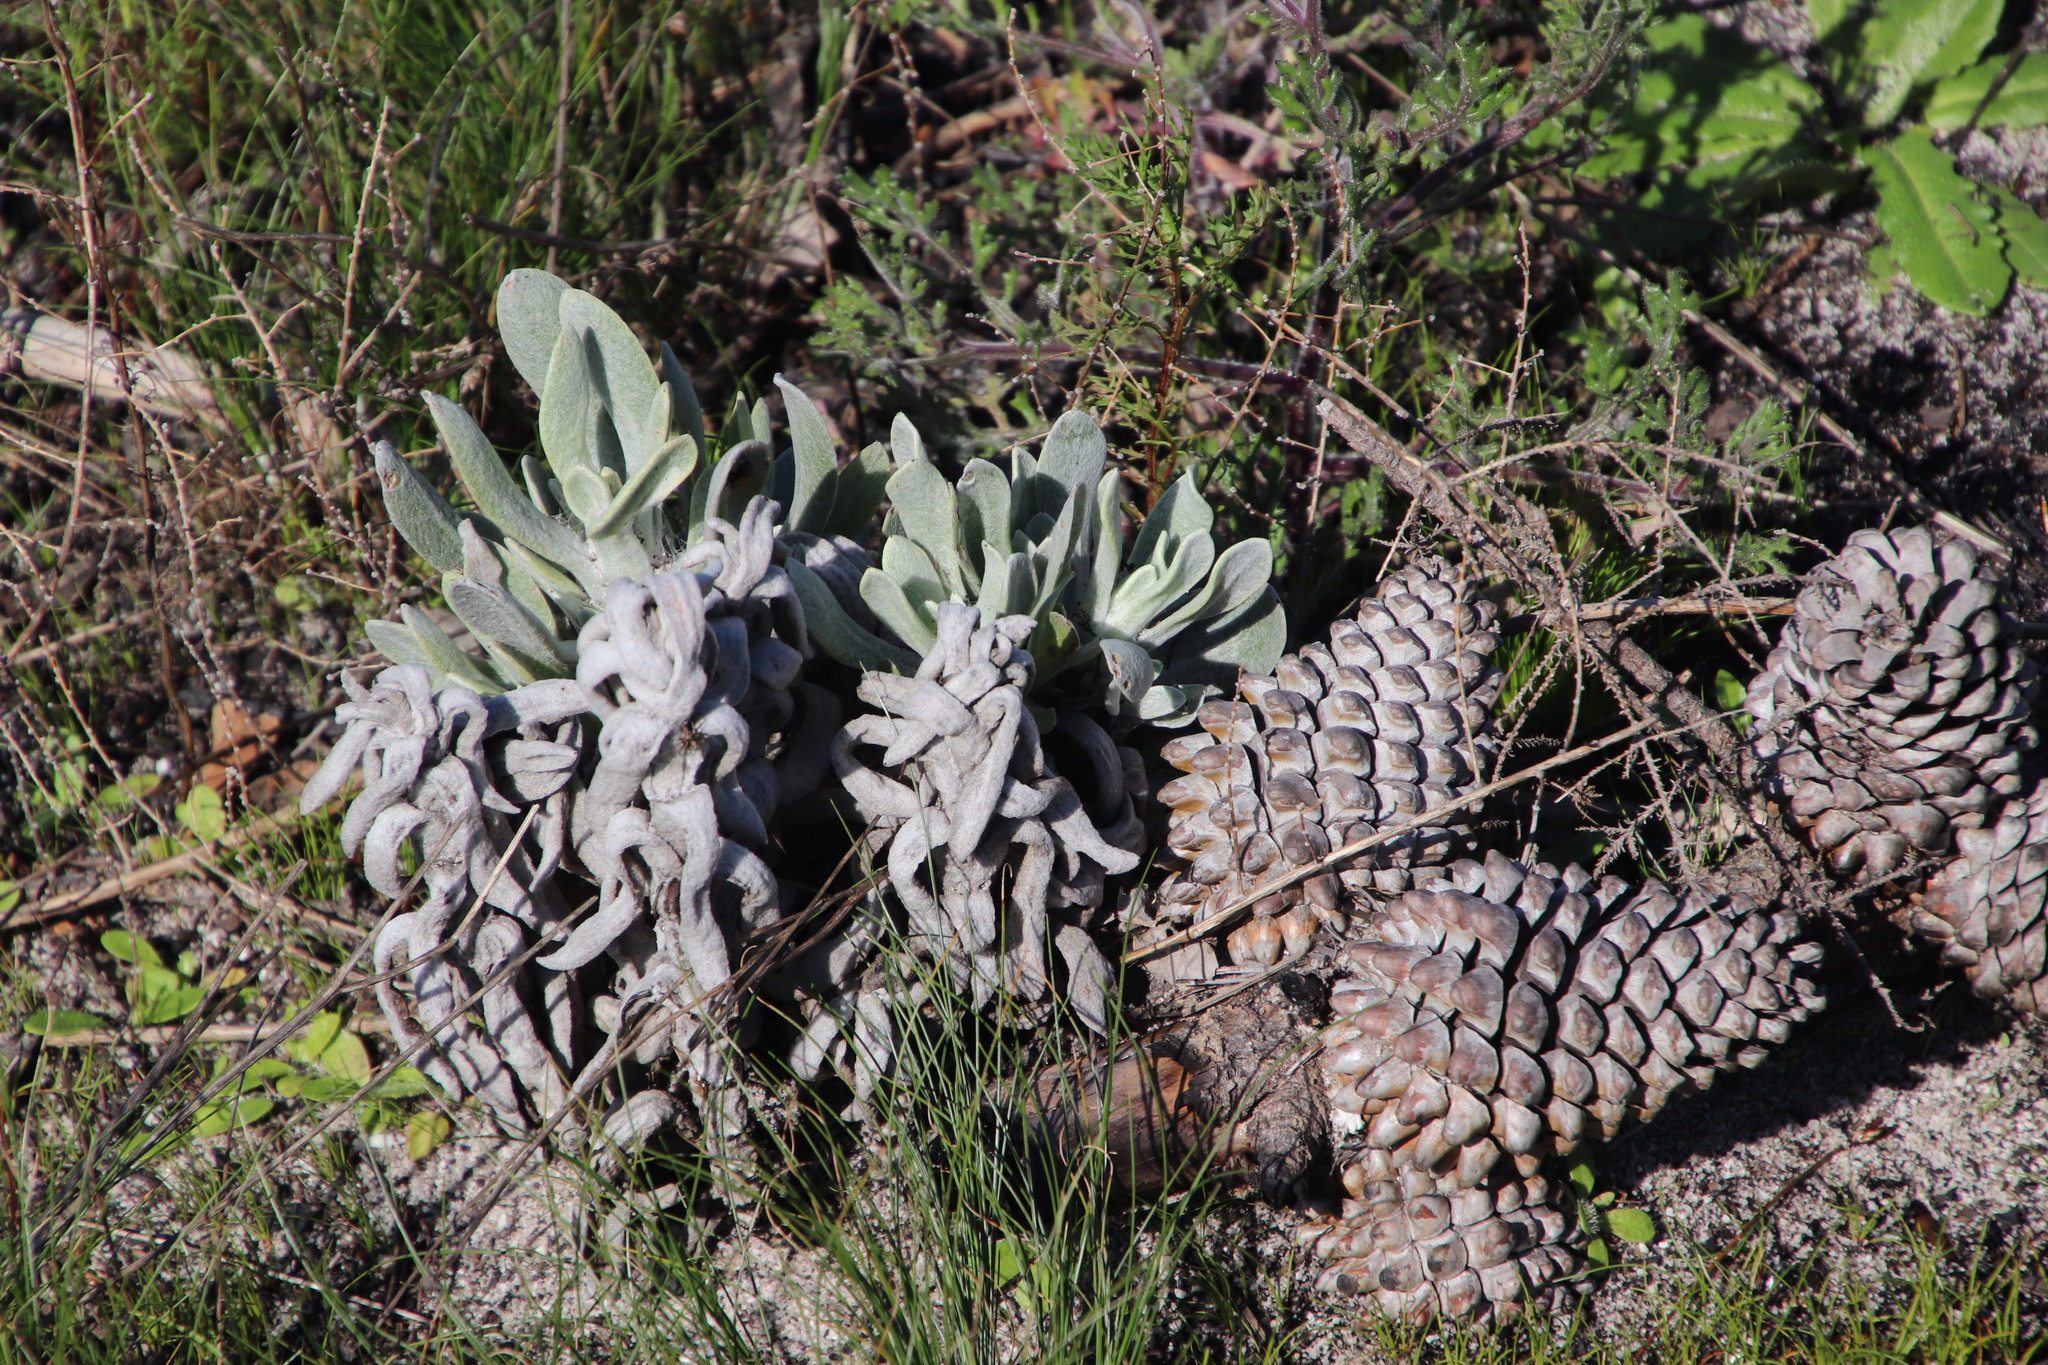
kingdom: Plantae
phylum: Tracheophyta
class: Magnoliopsida
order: Asterales
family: Asteraceae
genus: Syncarpha
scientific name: Syncarpha vestita
